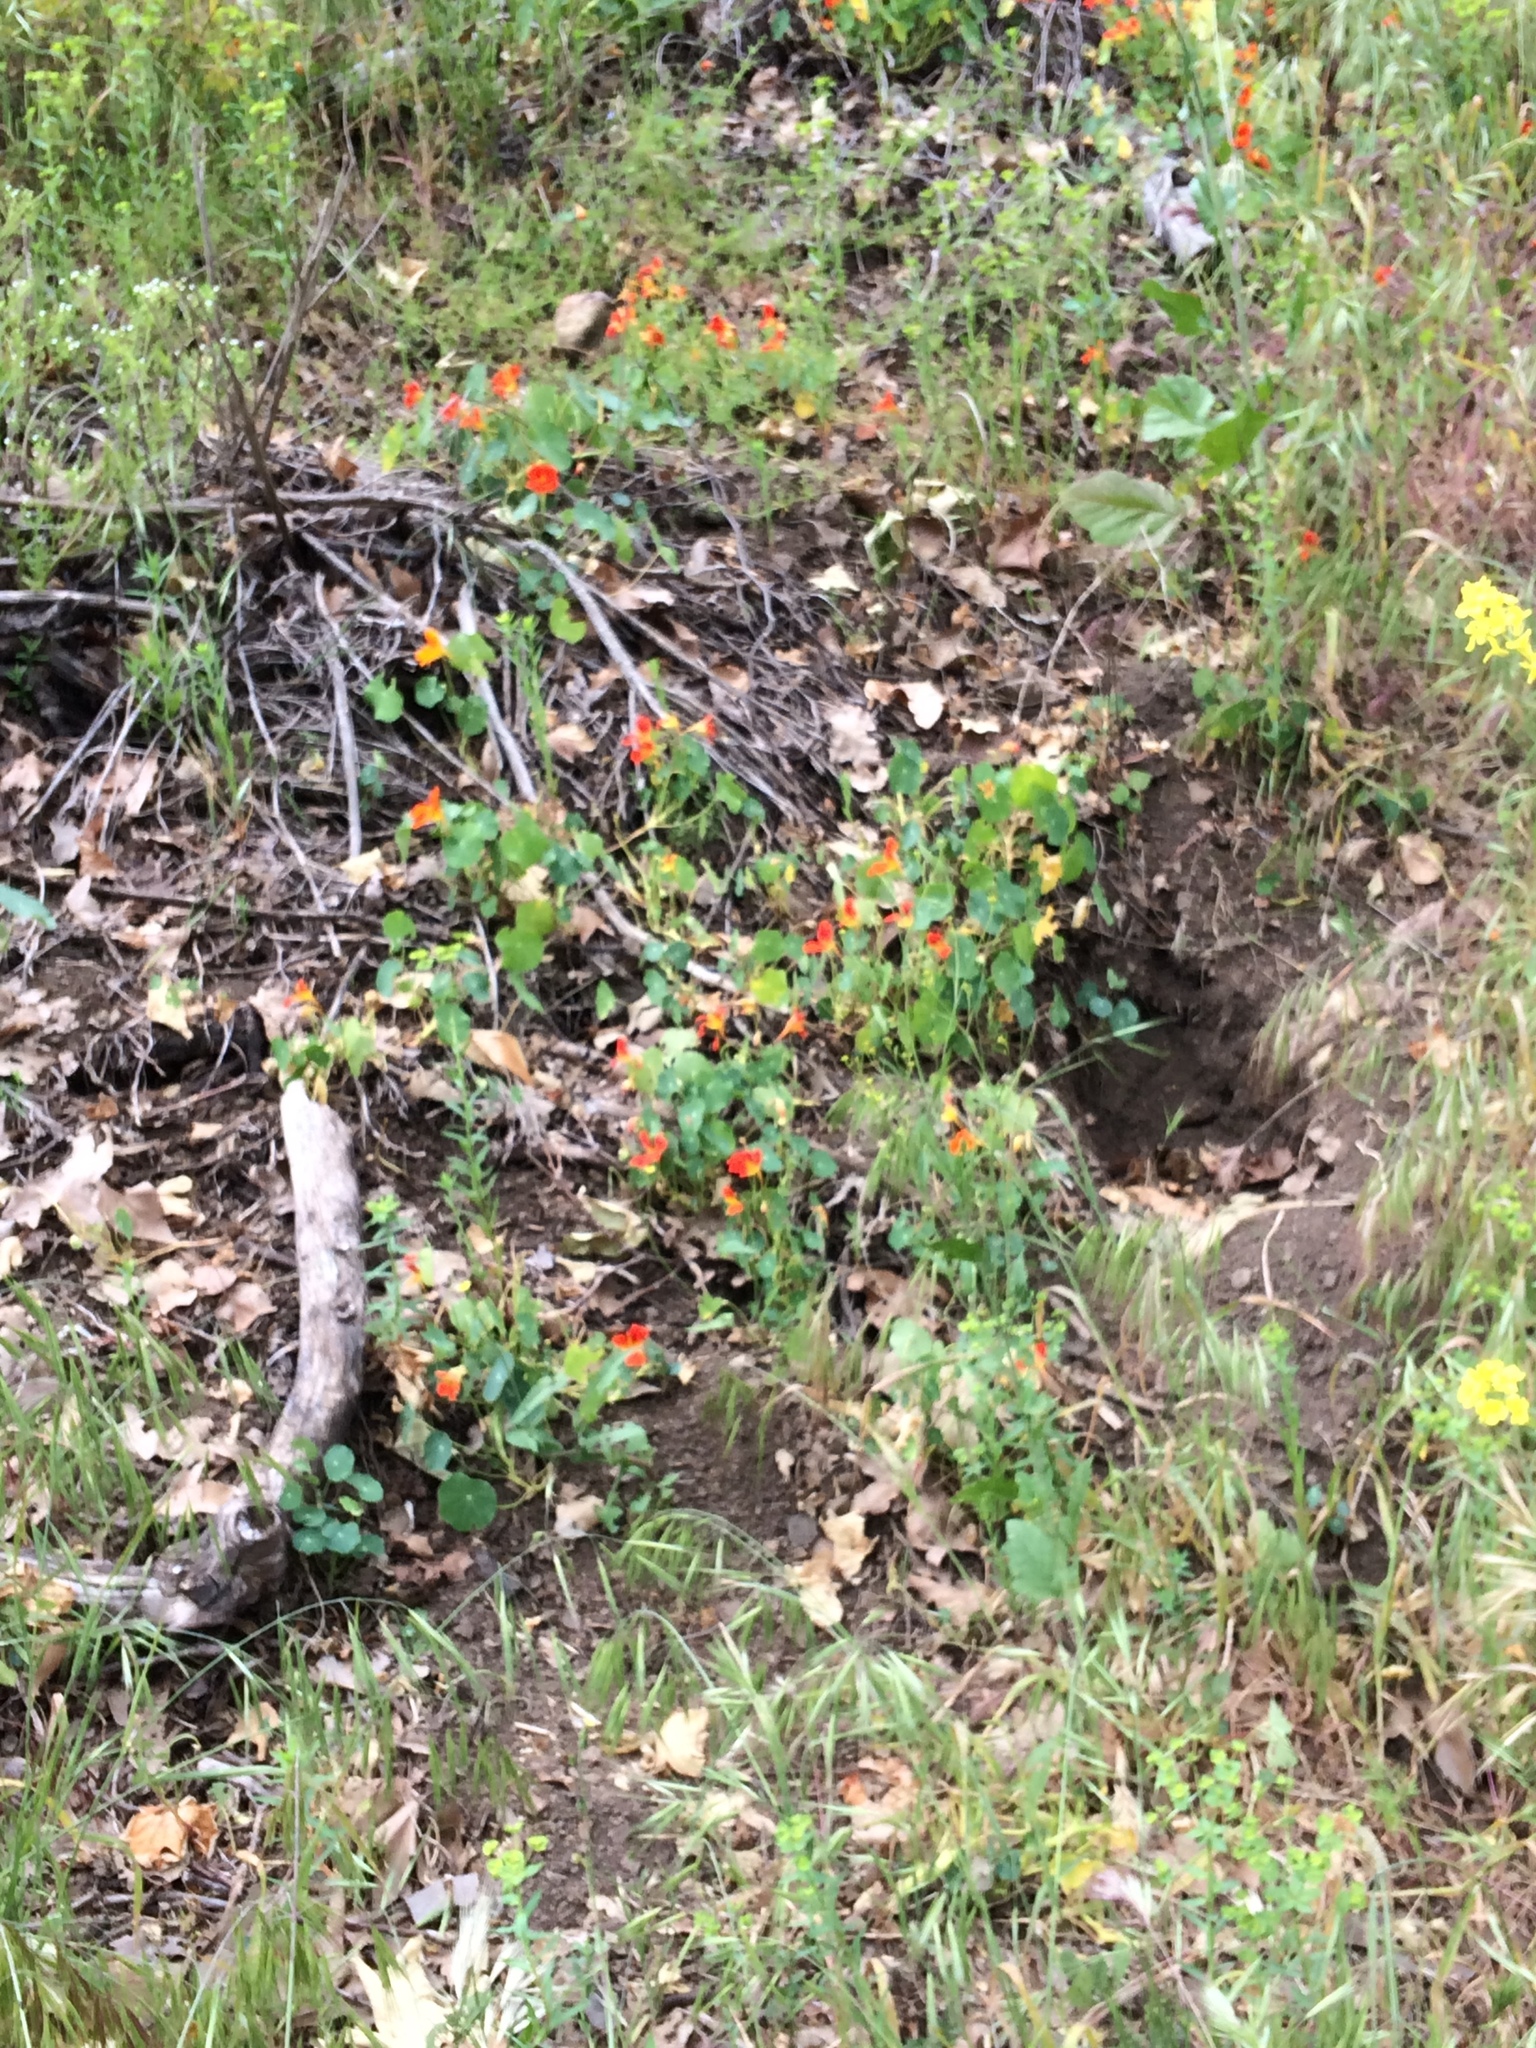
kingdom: Plantae
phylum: Tracheophyta
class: Magnoliopsida
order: Brassicales
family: Tropaeolaceae
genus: Tropaeolum
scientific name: Tropaeolum majus
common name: Nasturtium
